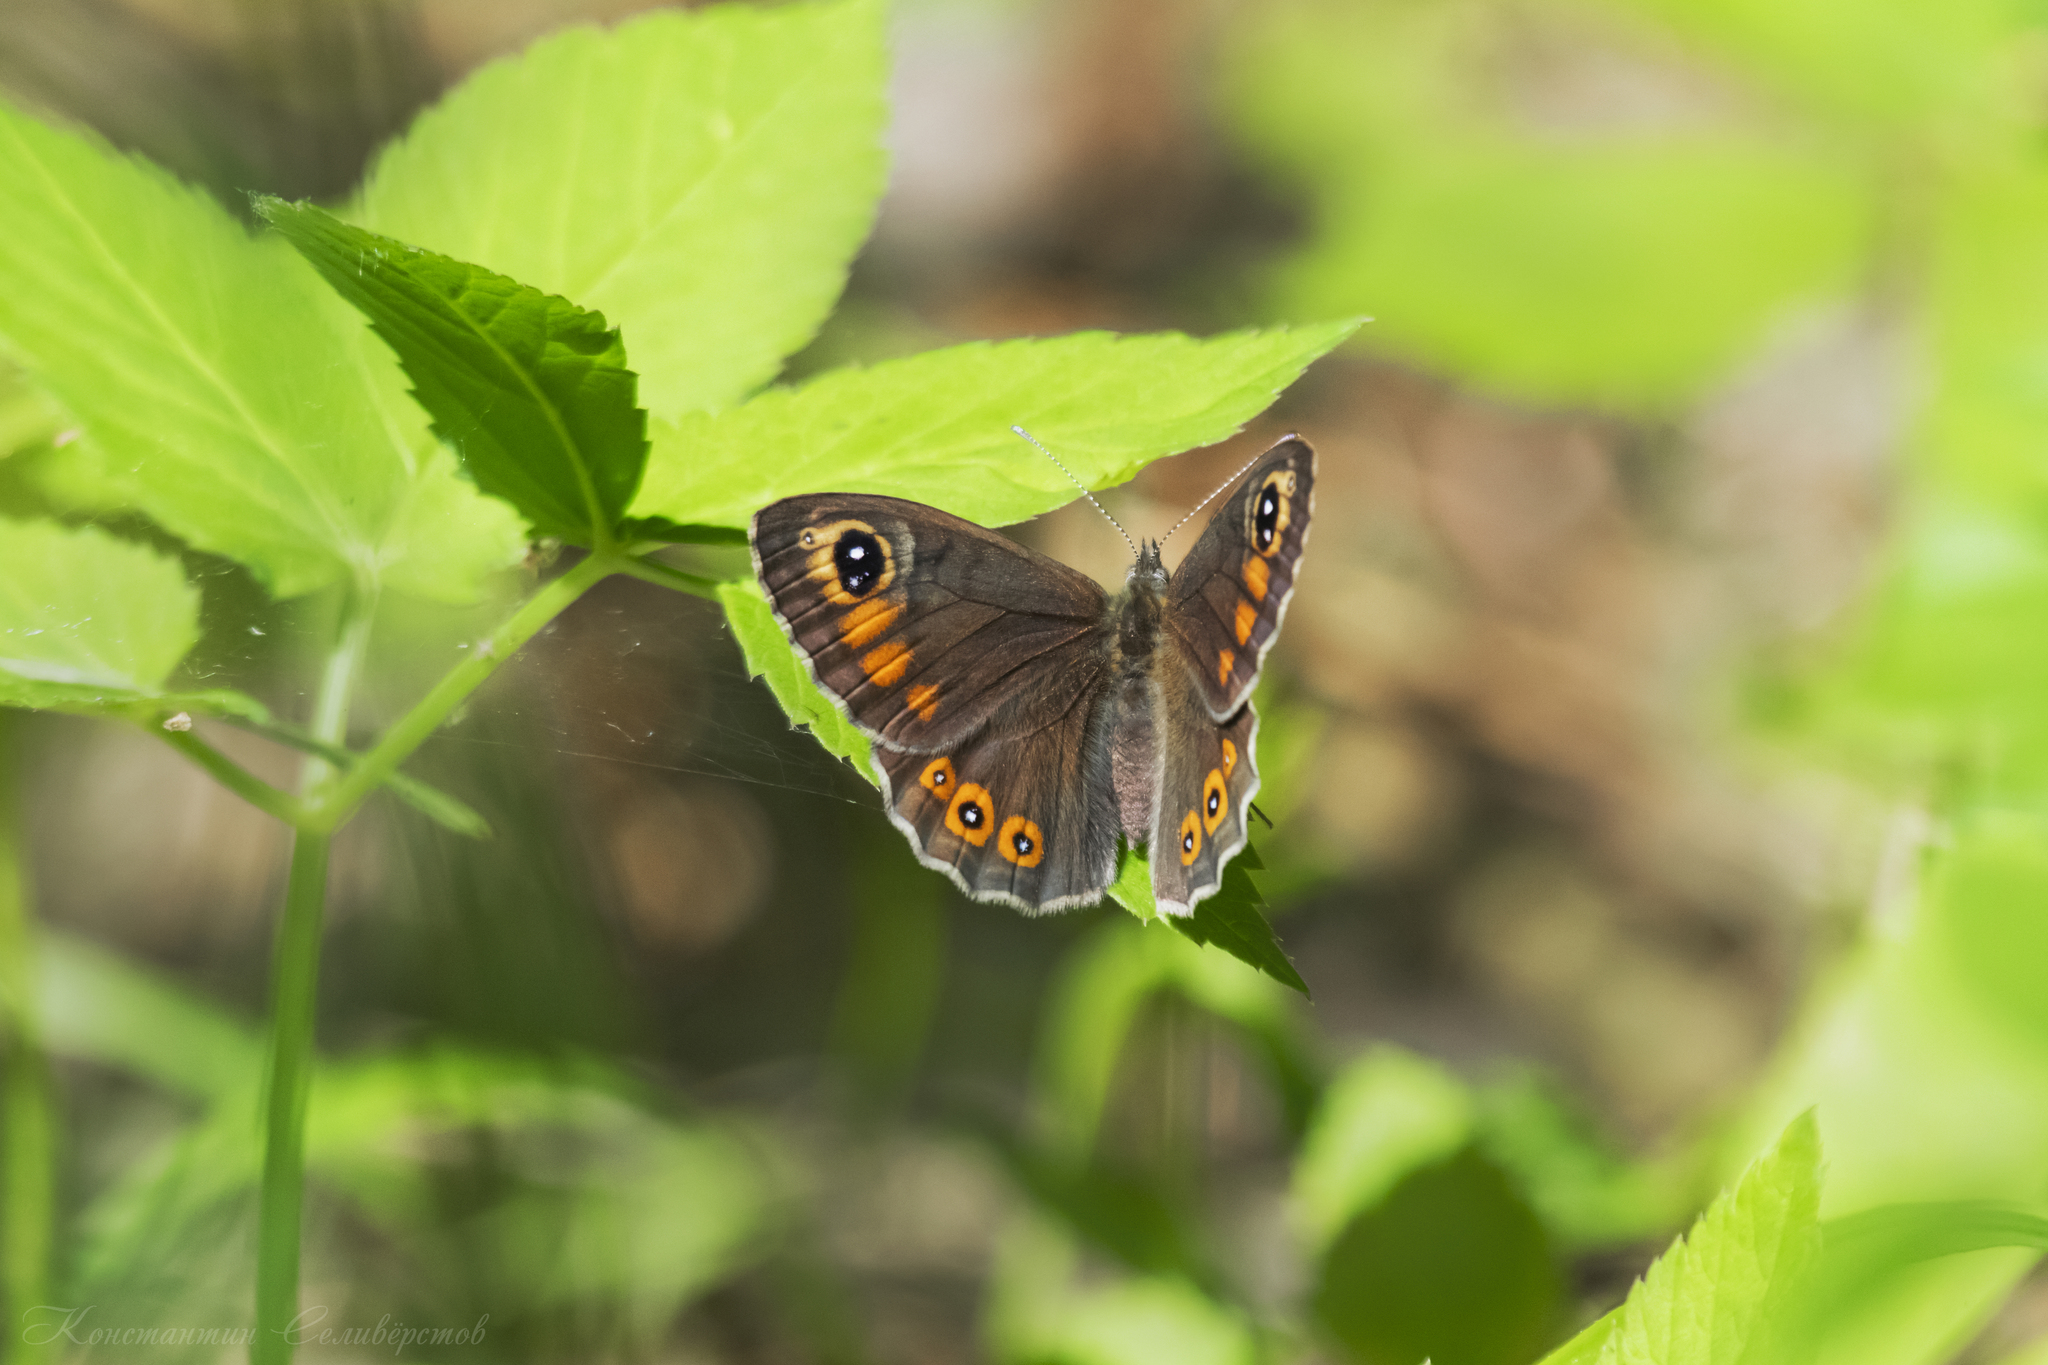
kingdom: Animalia
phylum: Arthropoda
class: Insecta
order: Lepidoptera
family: Nymphalidae
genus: Pararge
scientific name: Pararge Lasiommata maera
